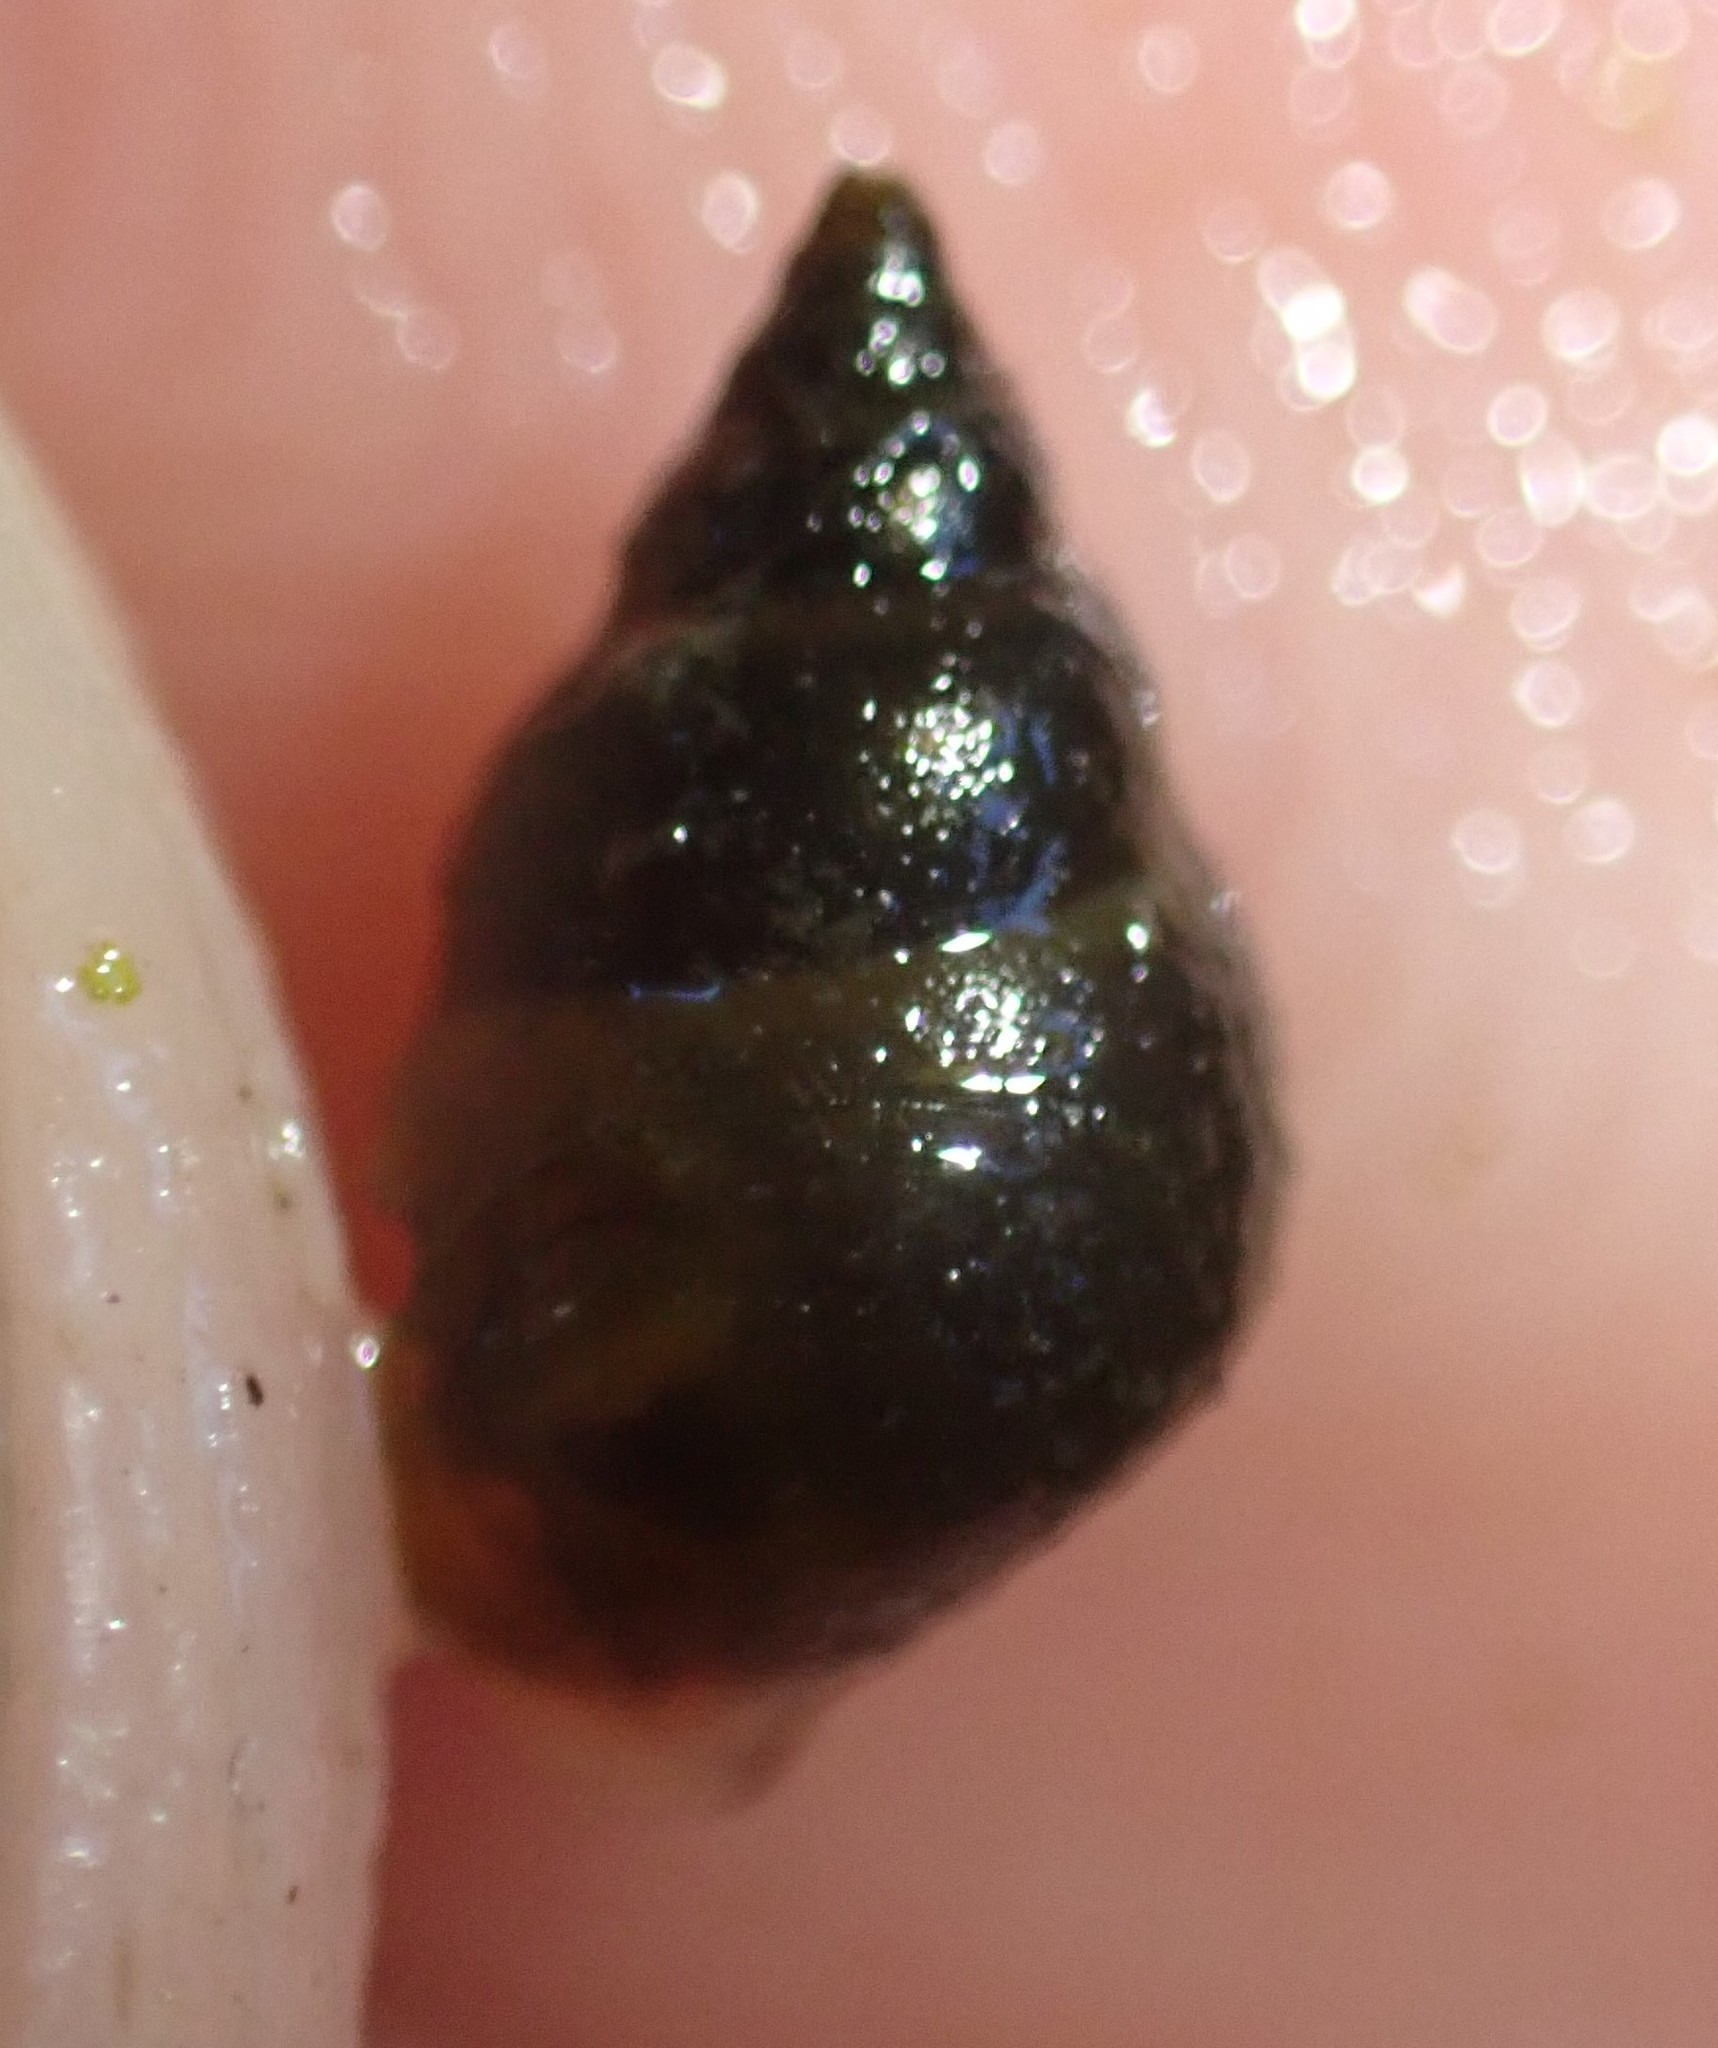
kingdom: Animalia
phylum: Mollusca
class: Gastropoda
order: Littorinimorpha
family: Tateidae
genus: Potamopyrgus
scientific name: Potamopyrgus estuarinus
